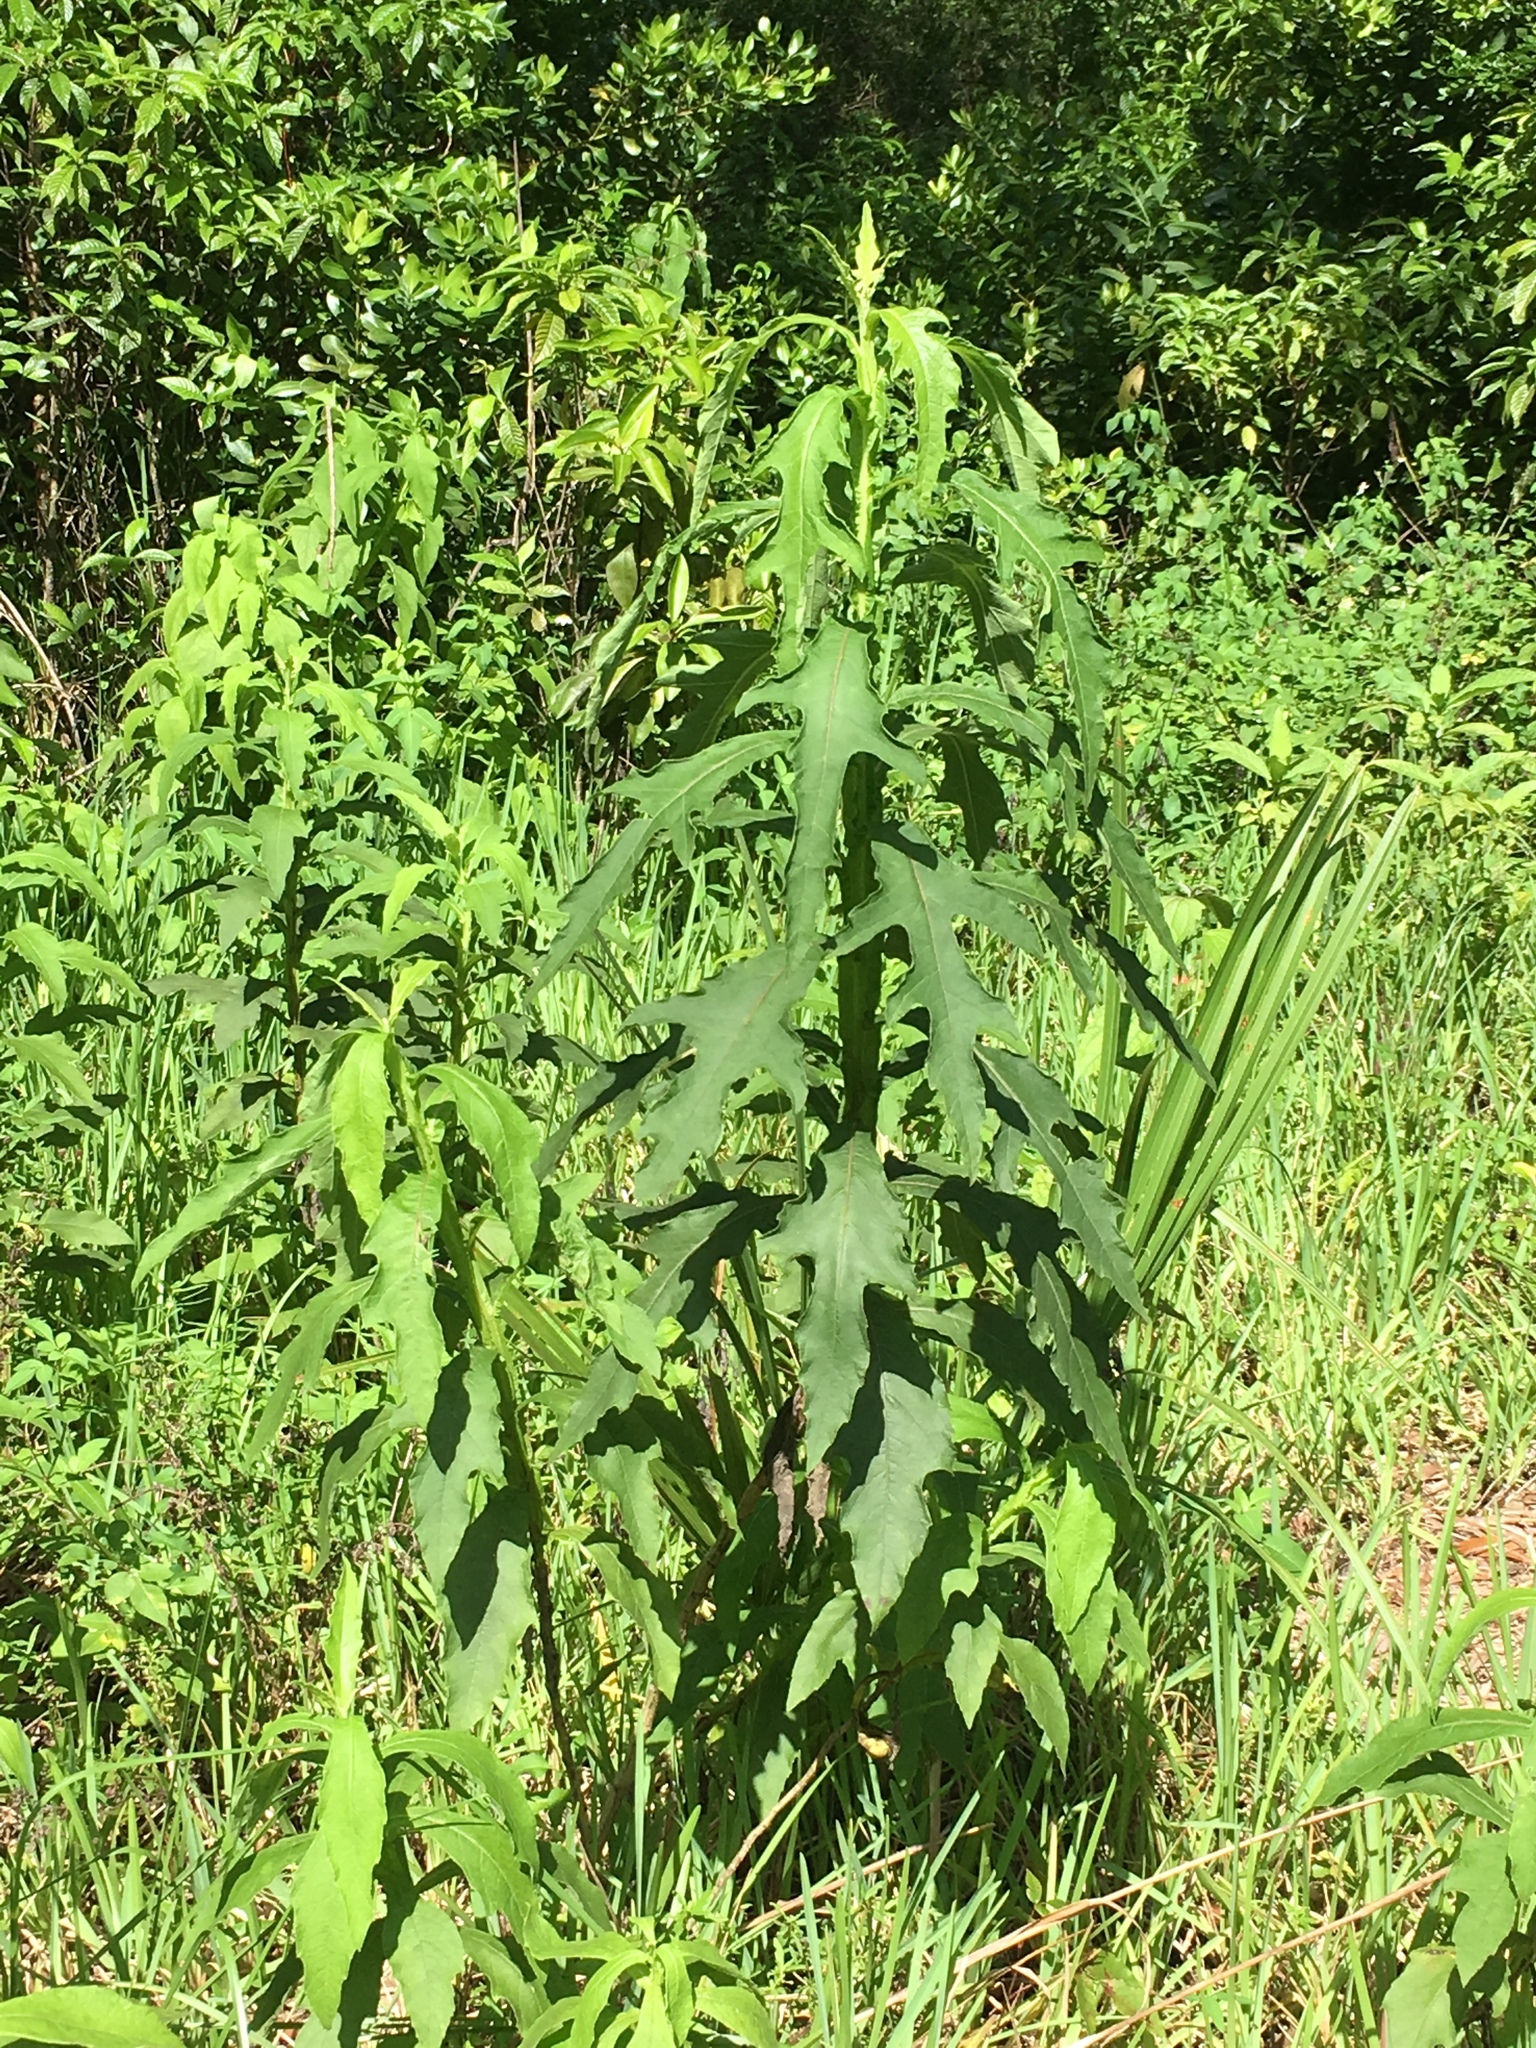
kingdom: Plantae
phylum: Tracheophyta
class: Magnoliopsida
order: Asterales
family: Asteraceae
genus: Verbesina
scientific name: Verbesina virginica
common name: Frostweed
